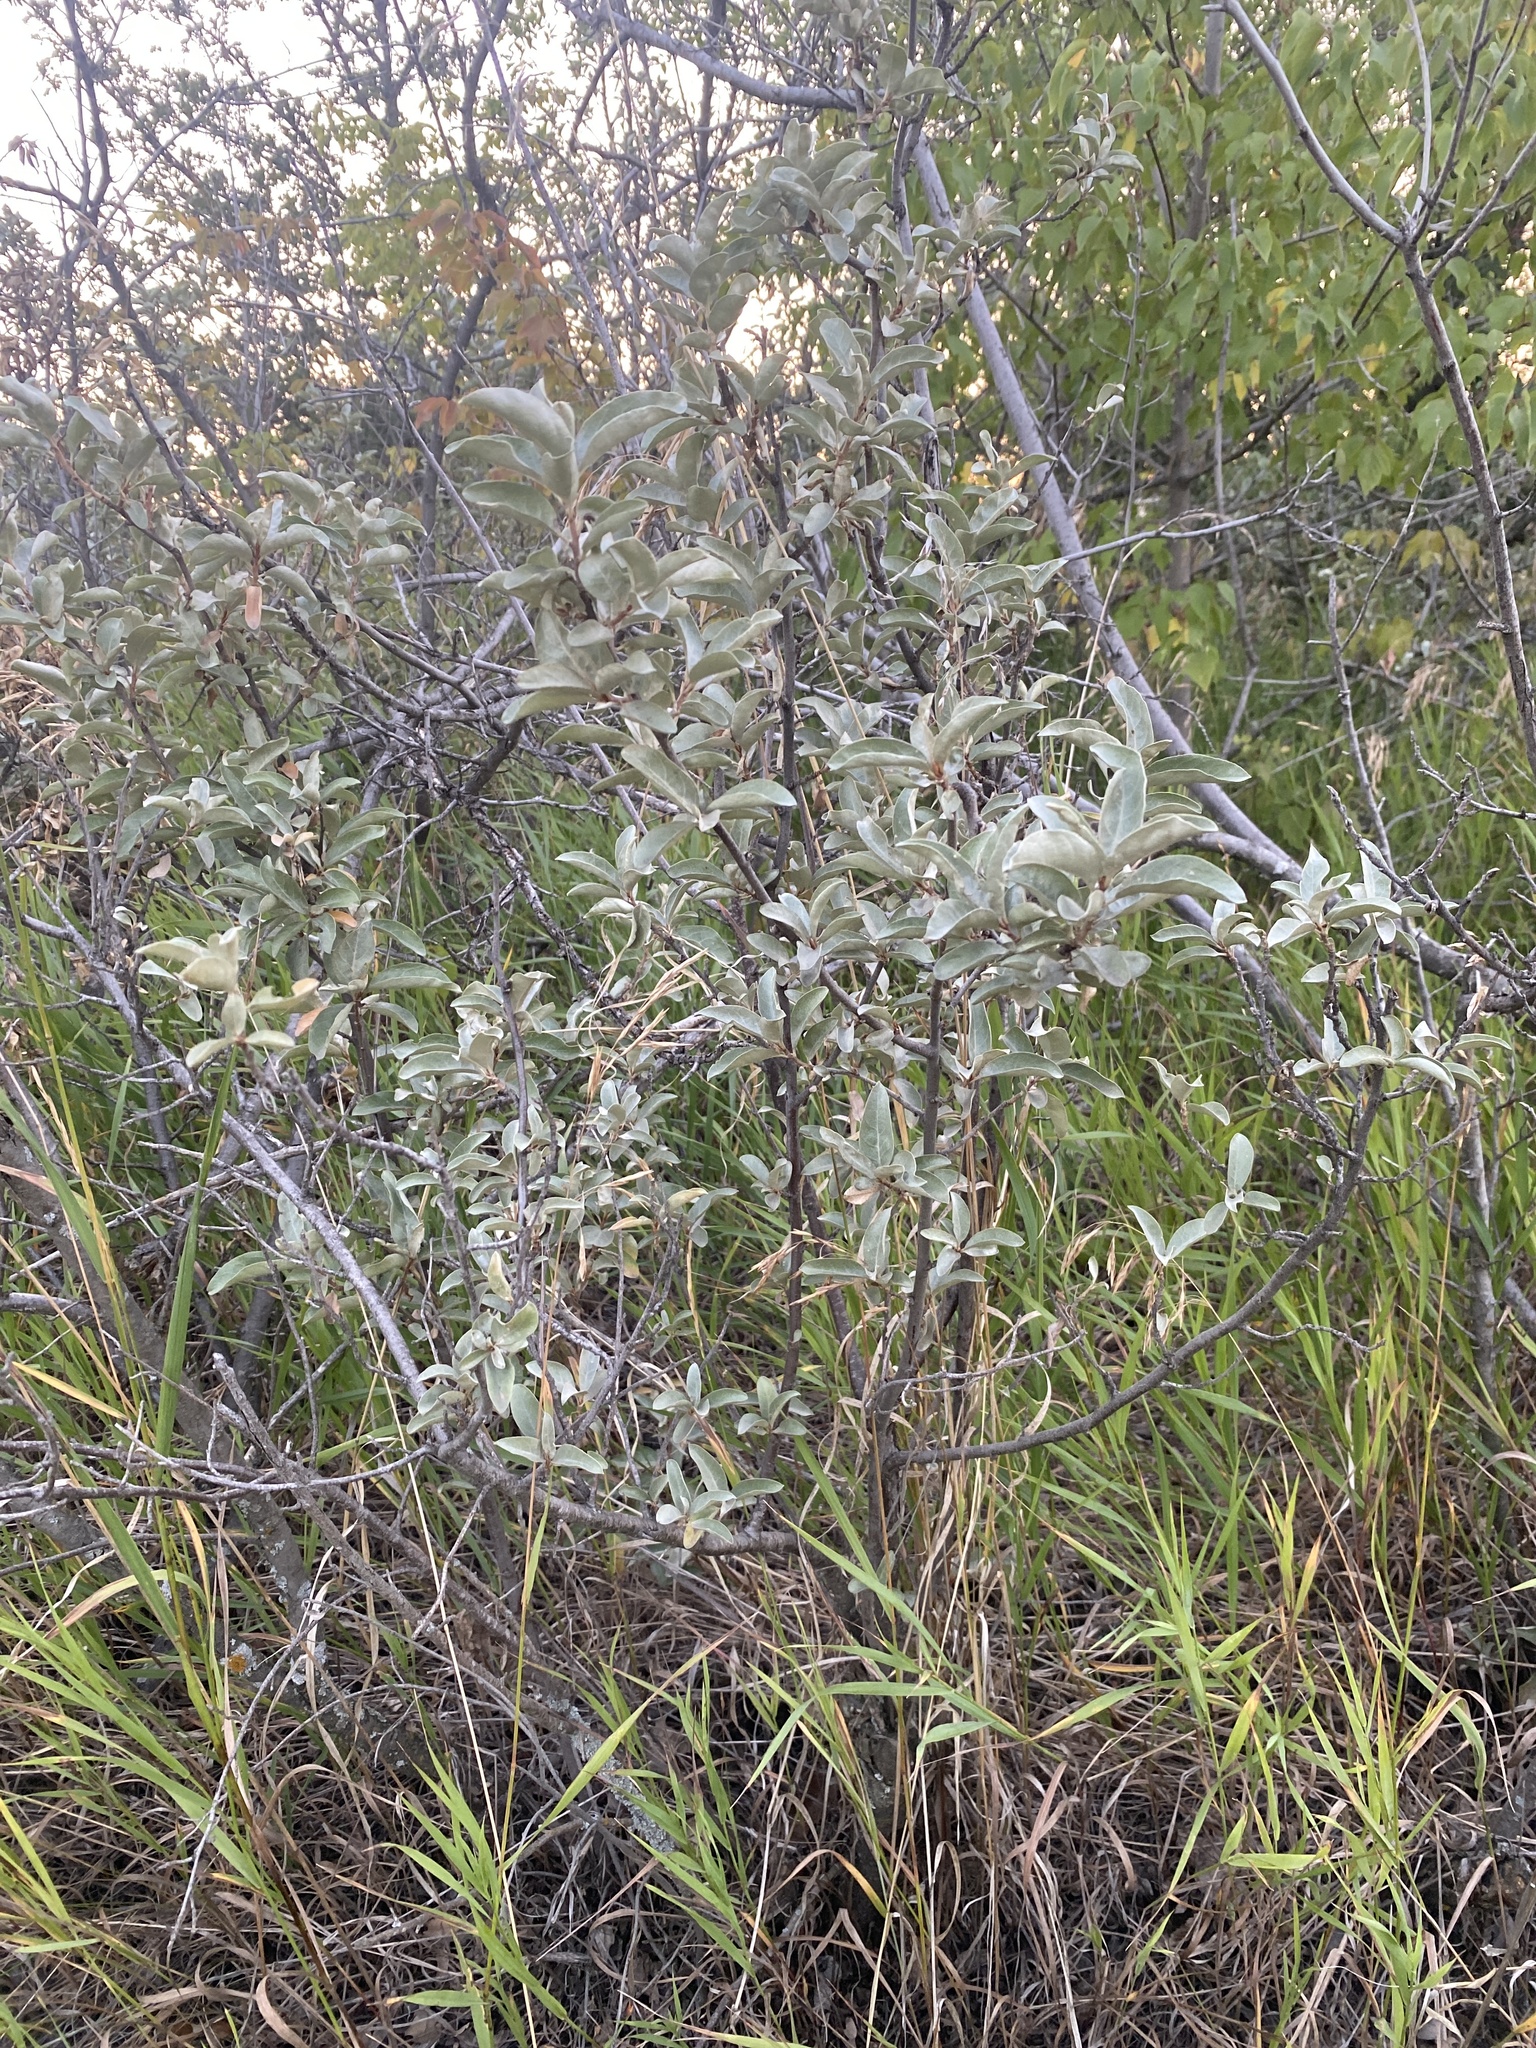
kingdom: Plantae
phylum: Tracheophyta
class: Magnoliopsida
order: Rosales
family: Elaeagnaceae
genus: Elaeagnus
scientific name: Elaeagnus commutata
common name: Silverberry
